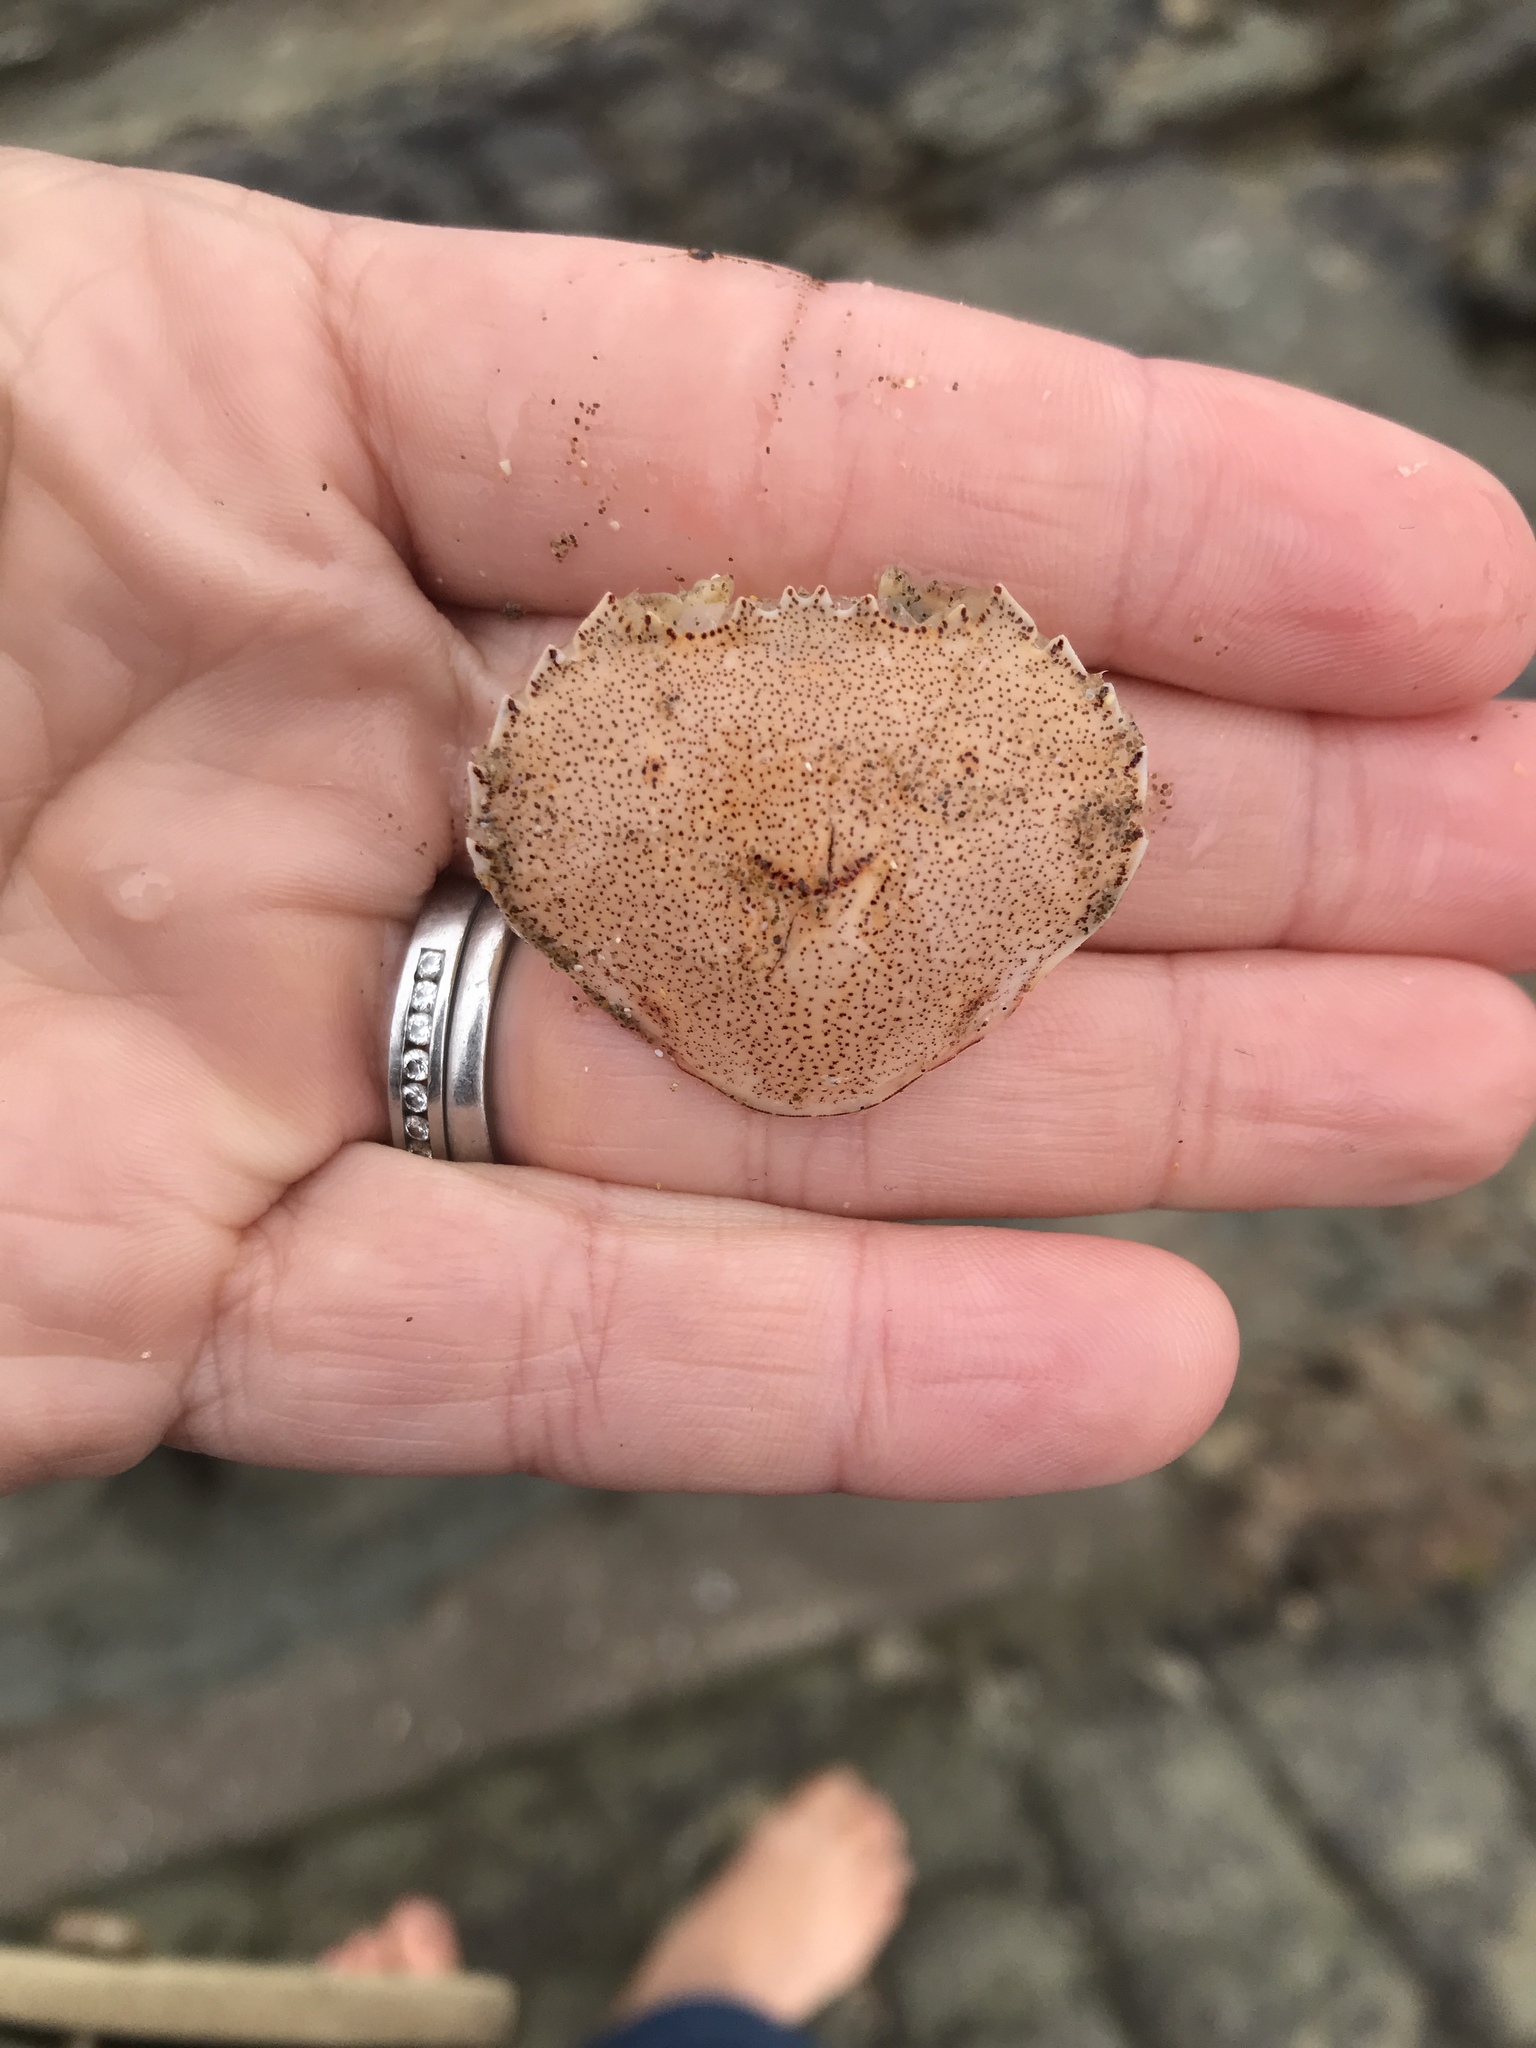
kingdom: Animalia
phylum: Arthropoda
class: Malacostraca
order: Decapoda
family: Ovalipidae
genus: Ovalipes
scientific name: Ovalipes catharus
